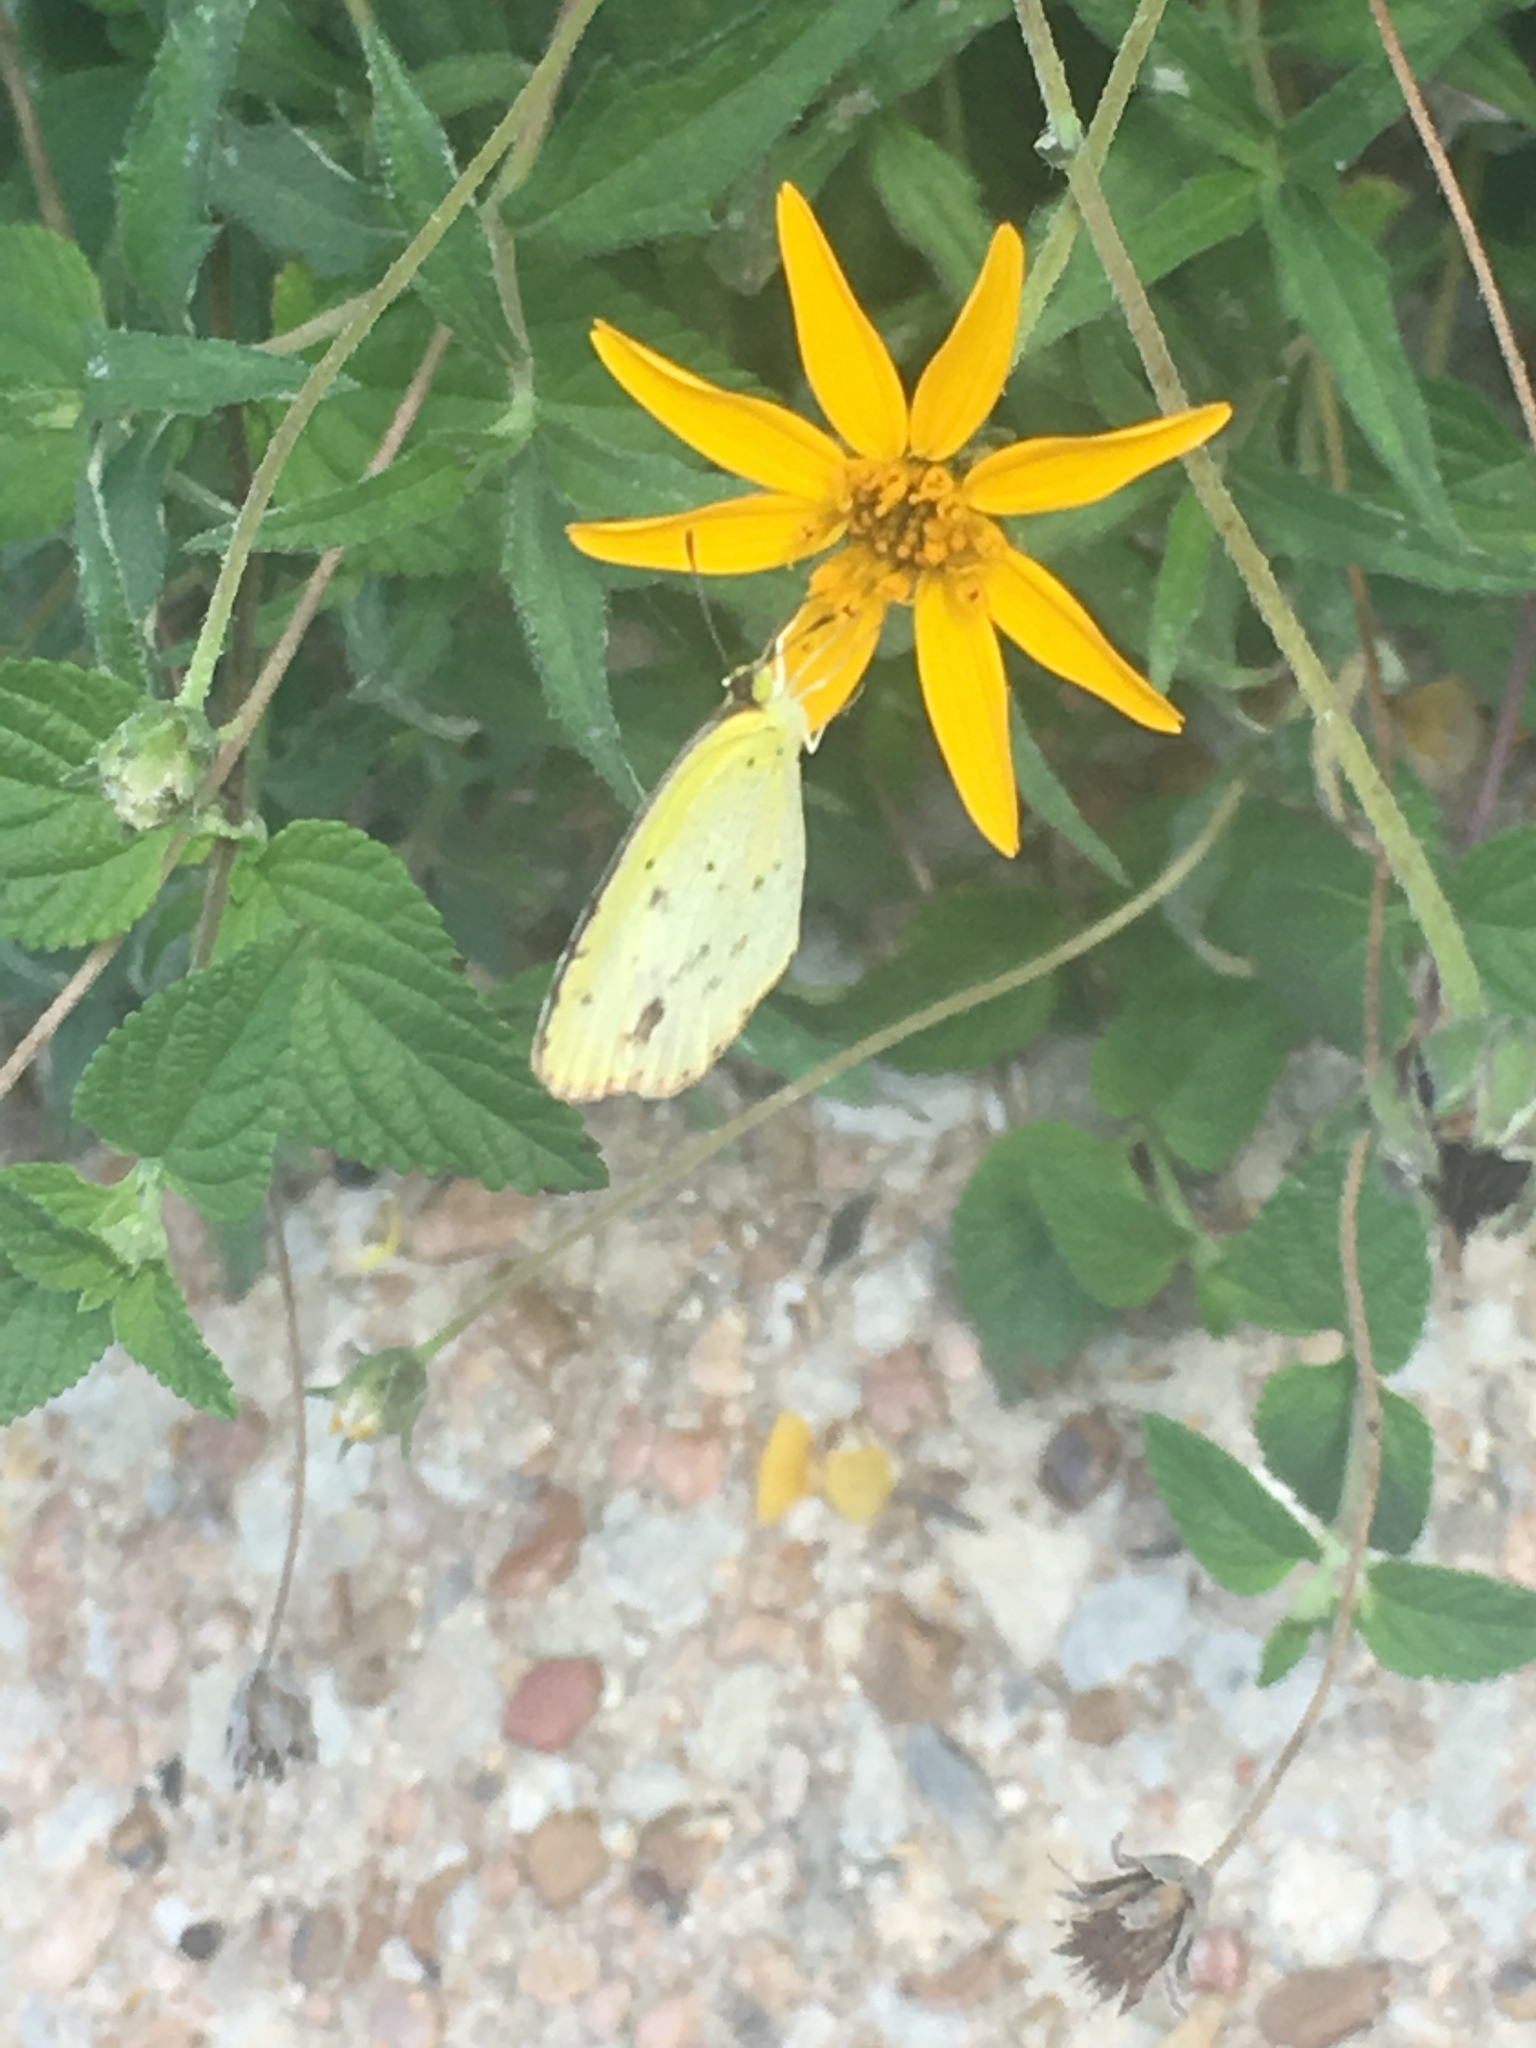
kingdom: Animalia
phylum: Arthropoda
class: Insecta
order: Lepidoptera
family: Pieridae
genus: Pyrisitia
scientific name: Pyrisitia lisa
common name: Little yellow
